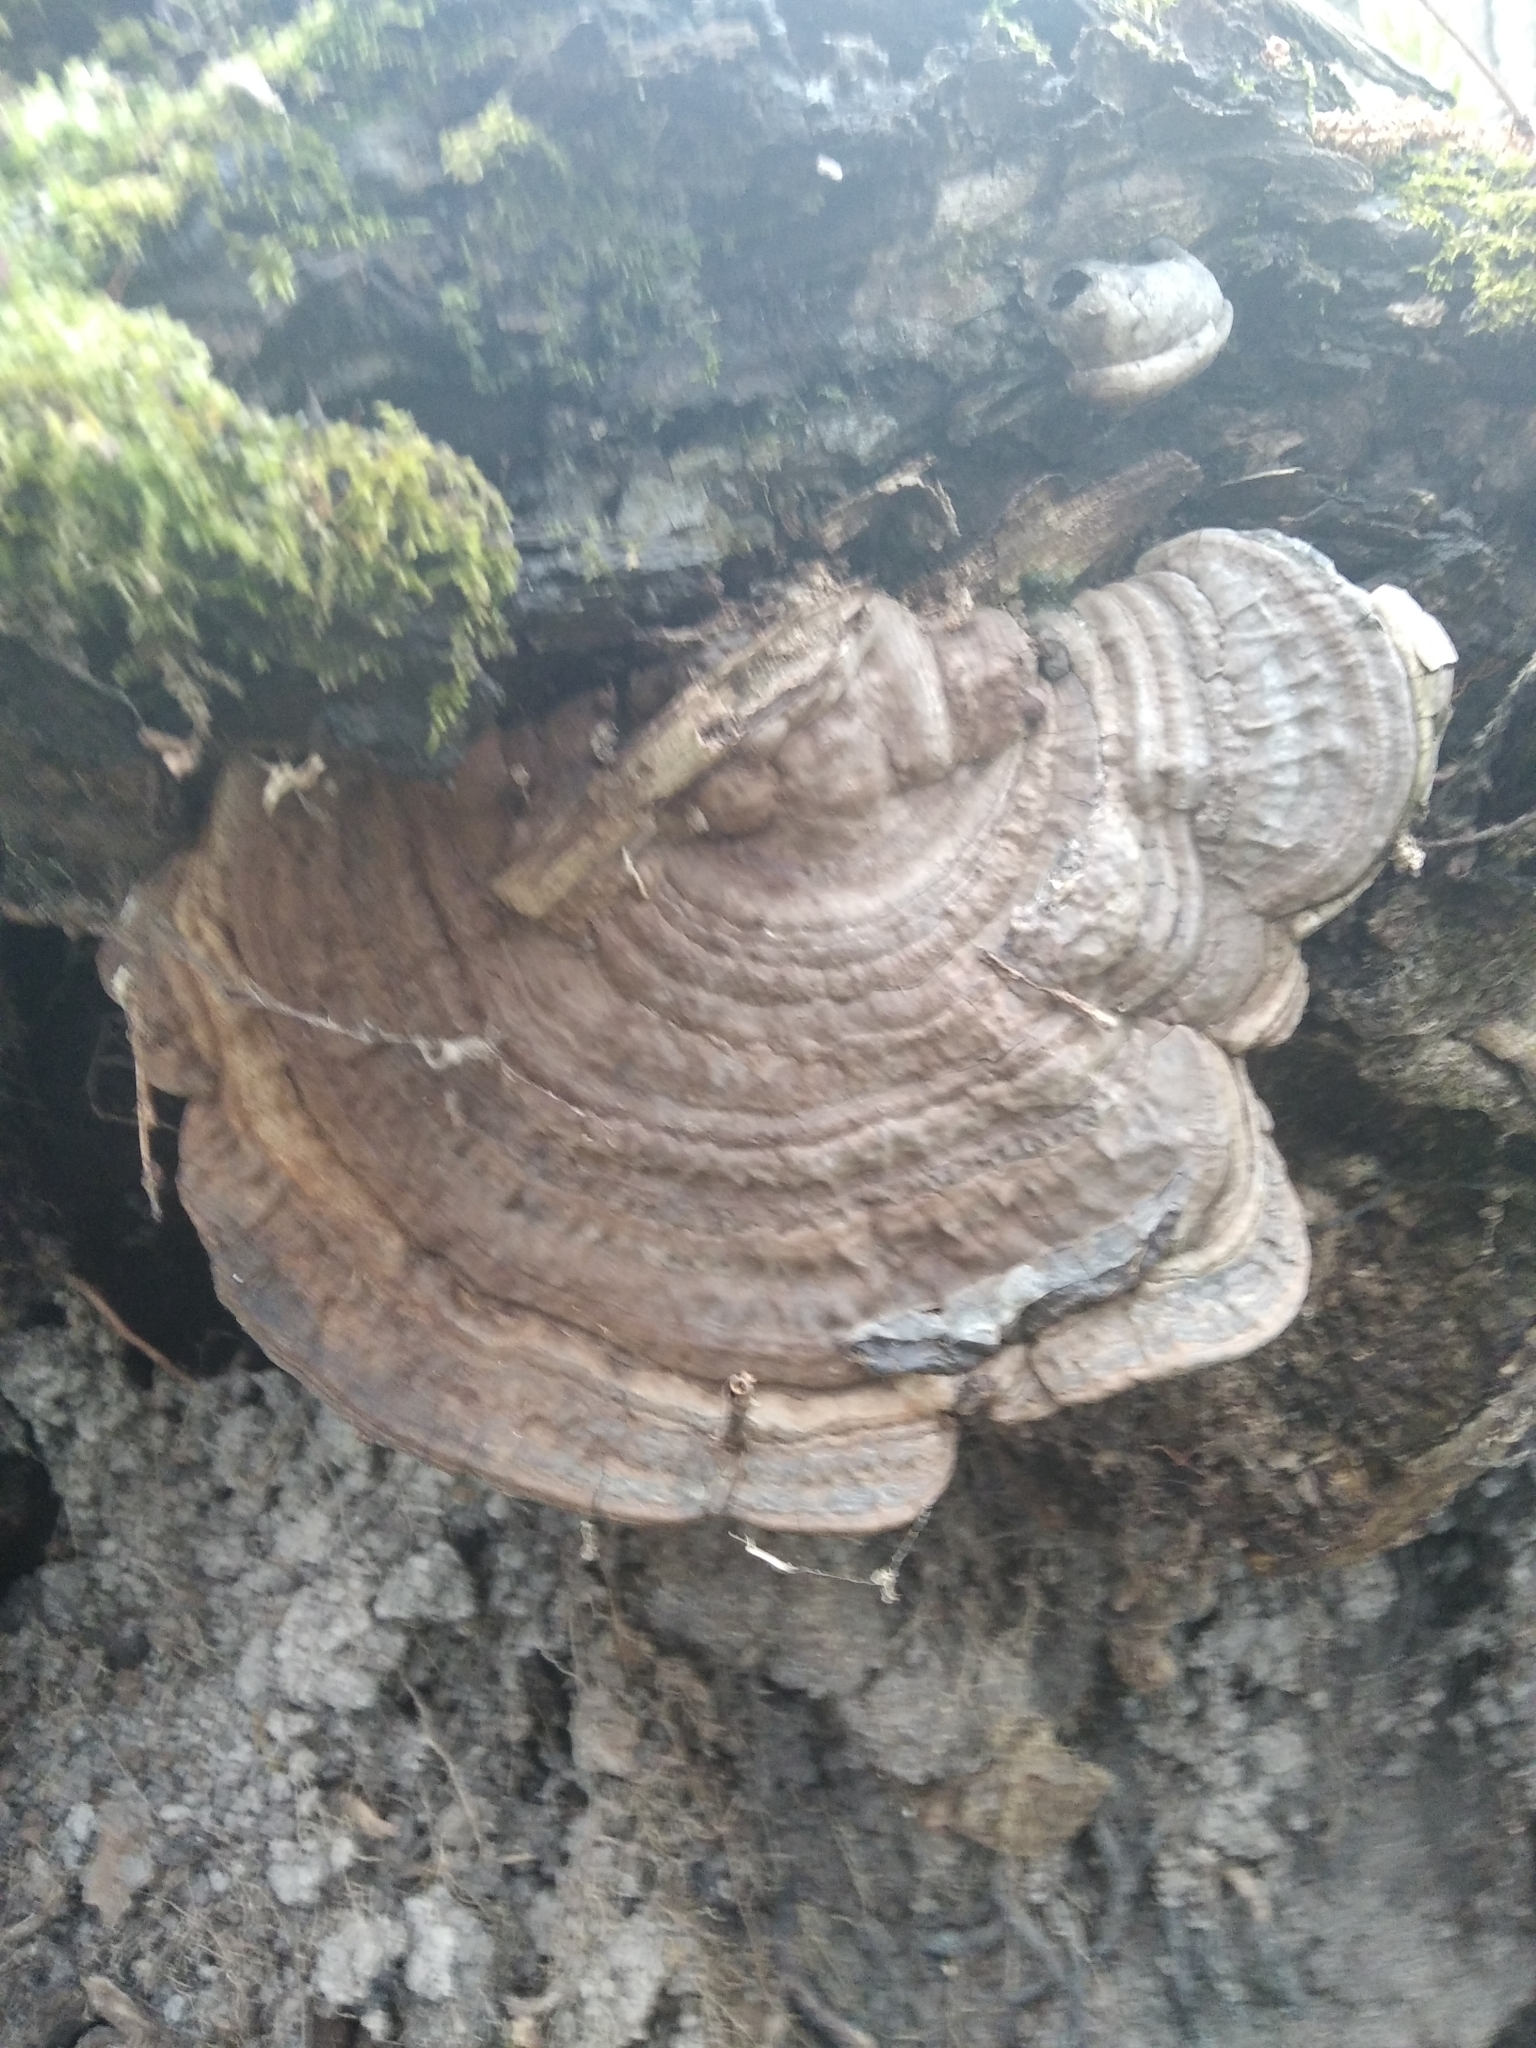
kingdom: Fungi
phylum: Basidiomycota
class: Agaricomycetes
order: Polyporales
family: Polyporaceae
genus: Ganoderma
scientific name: Ganoderma applanatum
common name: Artist's bracket
